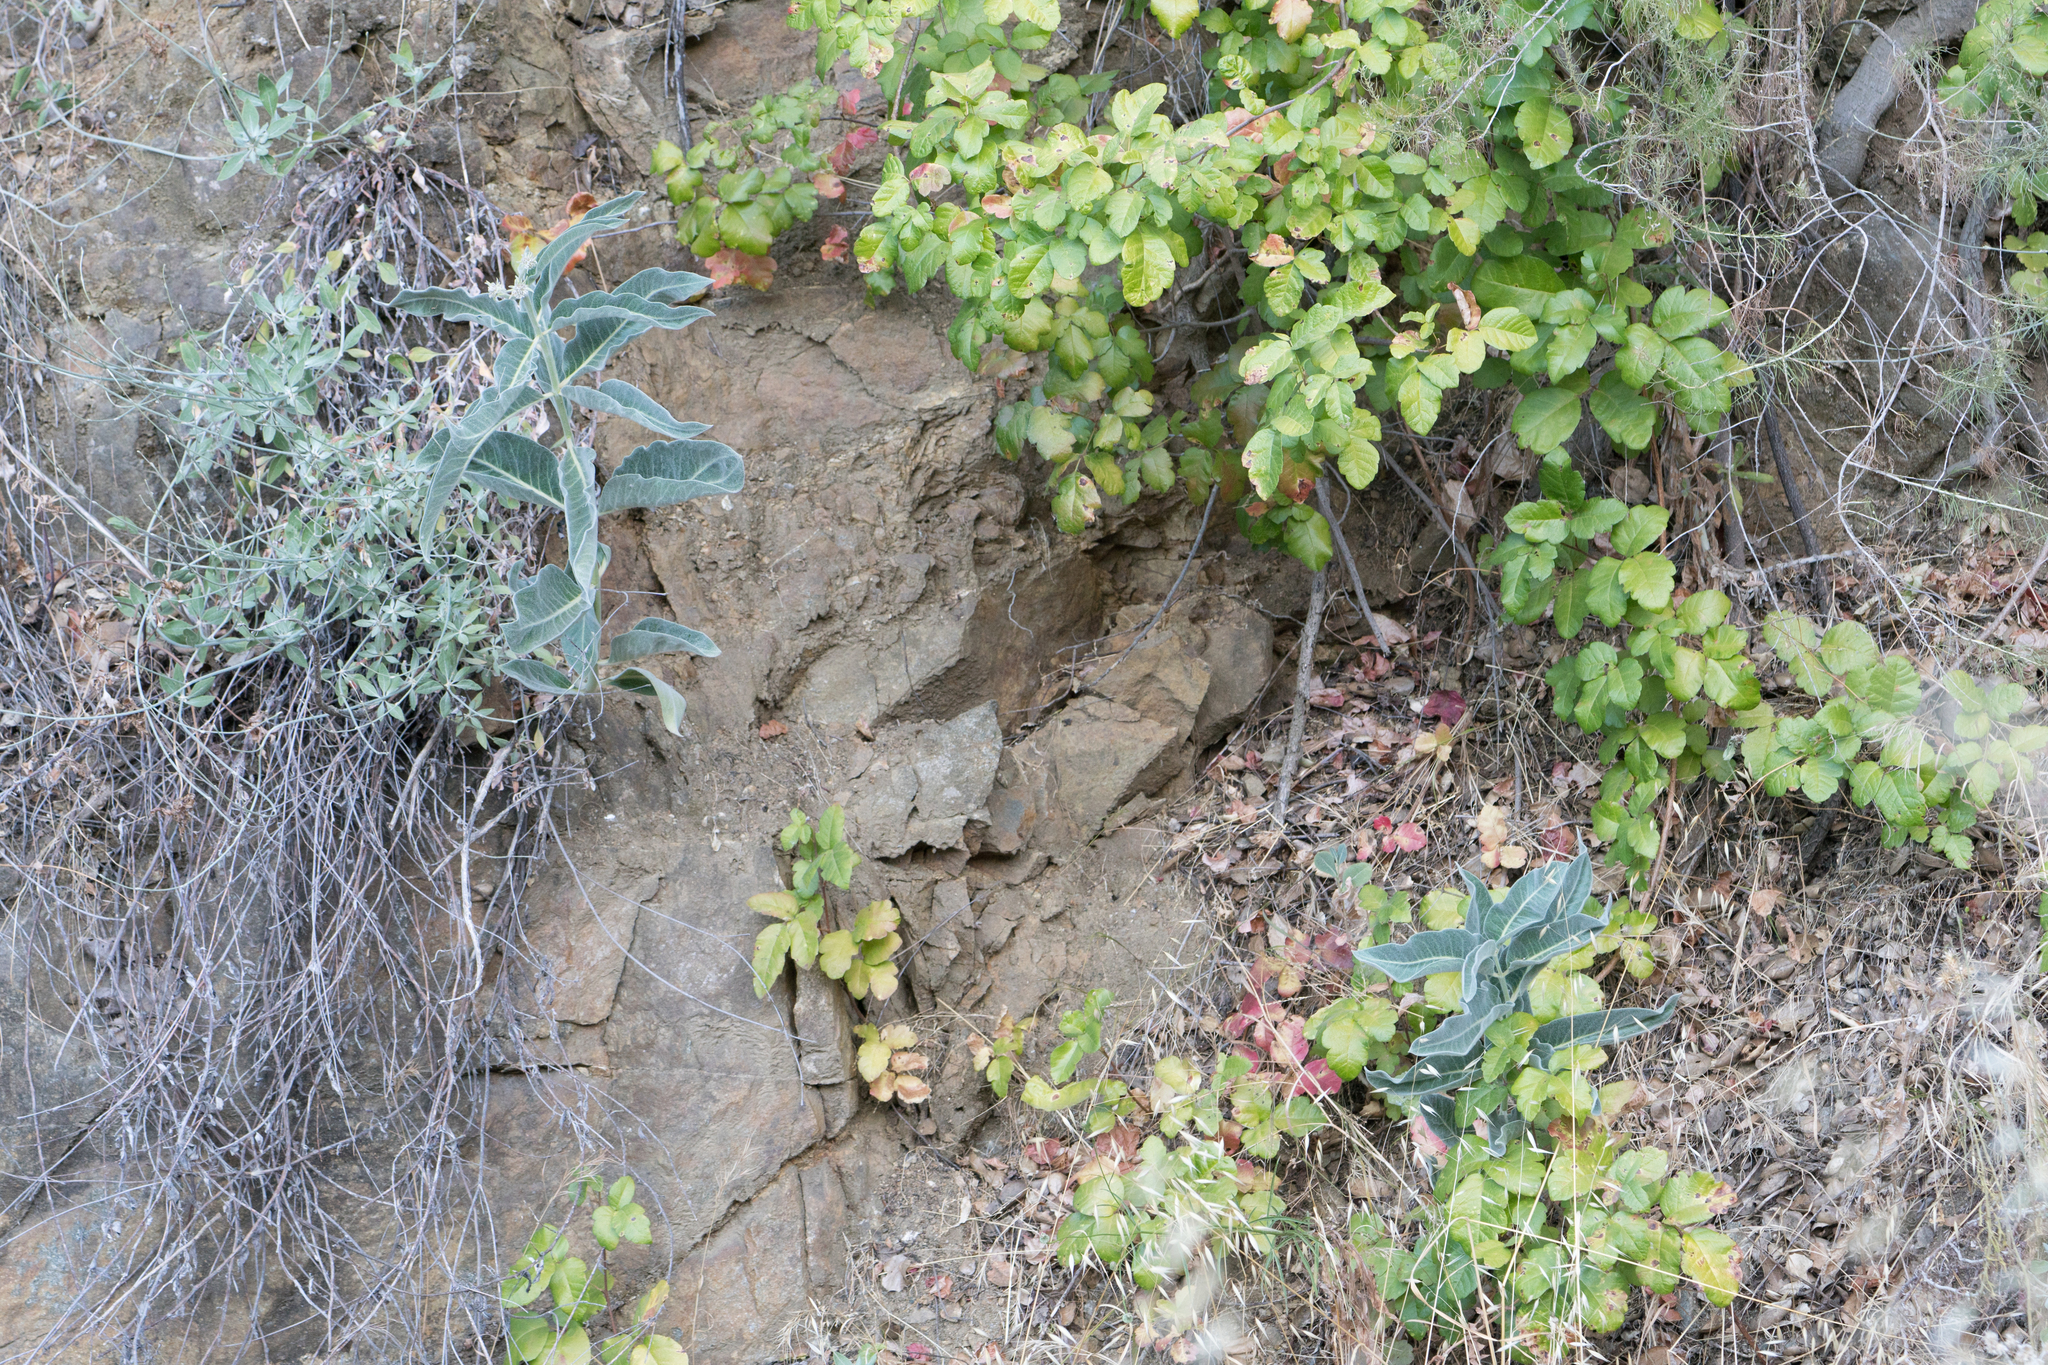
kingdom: Plantae
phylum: Tracheophyta
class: Magnoliopsida
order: Gentianales
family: Apocynaceae
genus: Asclepias
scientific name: Asclepias eriocarpa
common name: Indian milkweed
